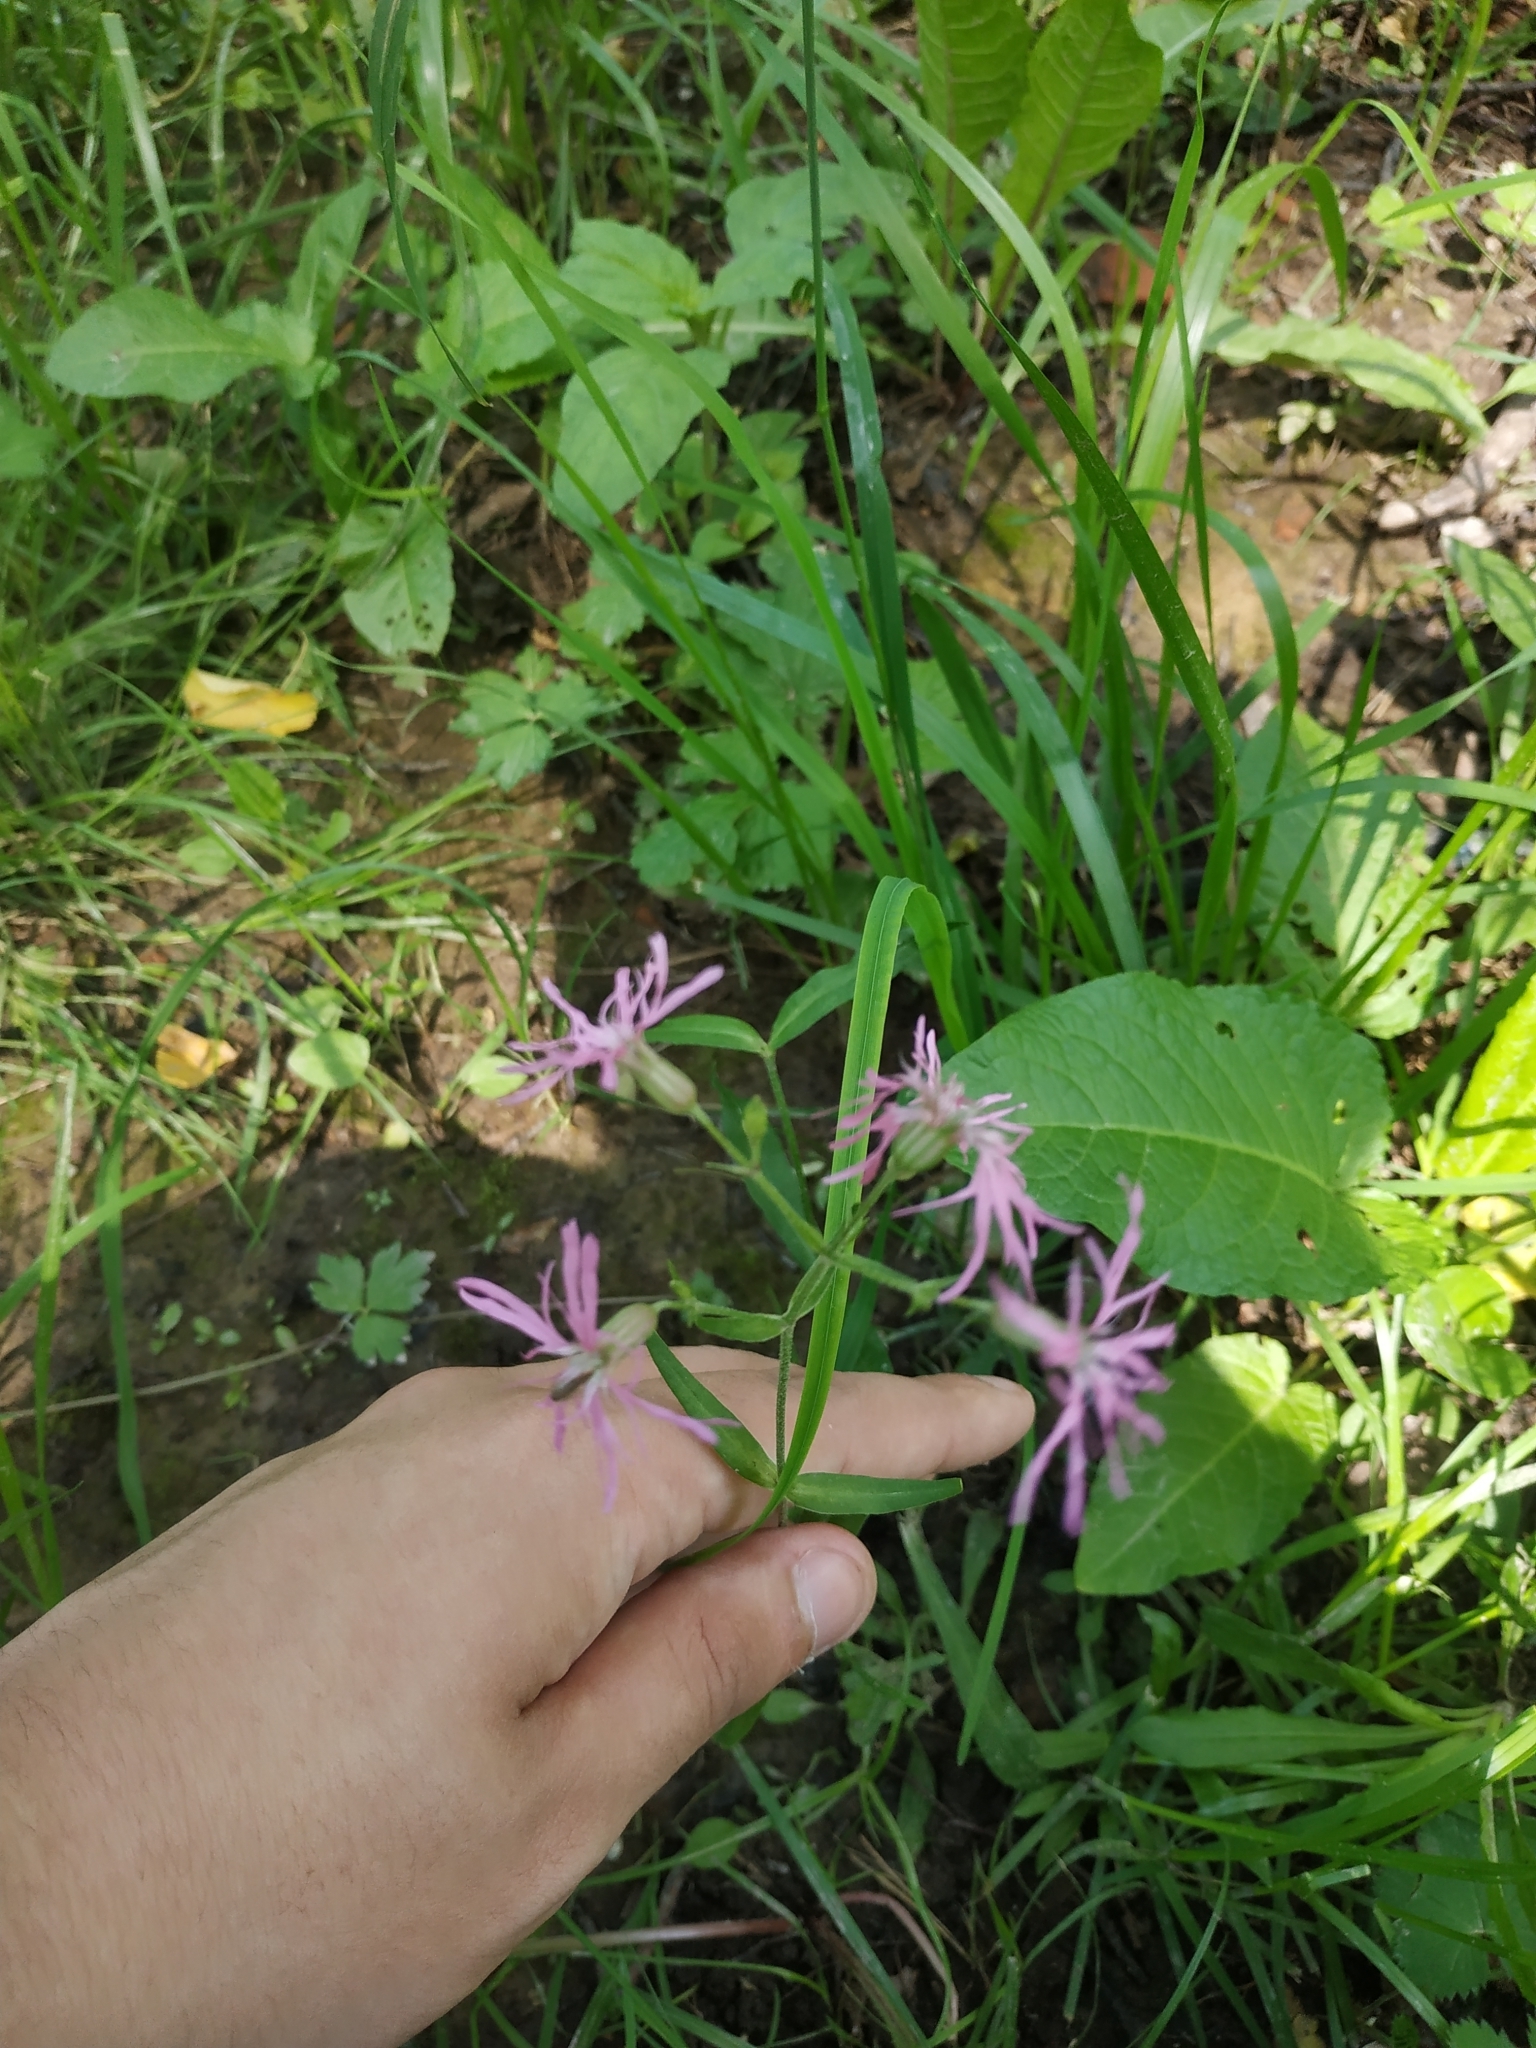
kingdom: Plantae
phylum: Tracheophyta
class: Magnoliopsida
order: Caryophyllales
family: Caryophyllaceae
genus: Silene
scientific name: Silene flos-cuculi
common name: Ragged-robin
